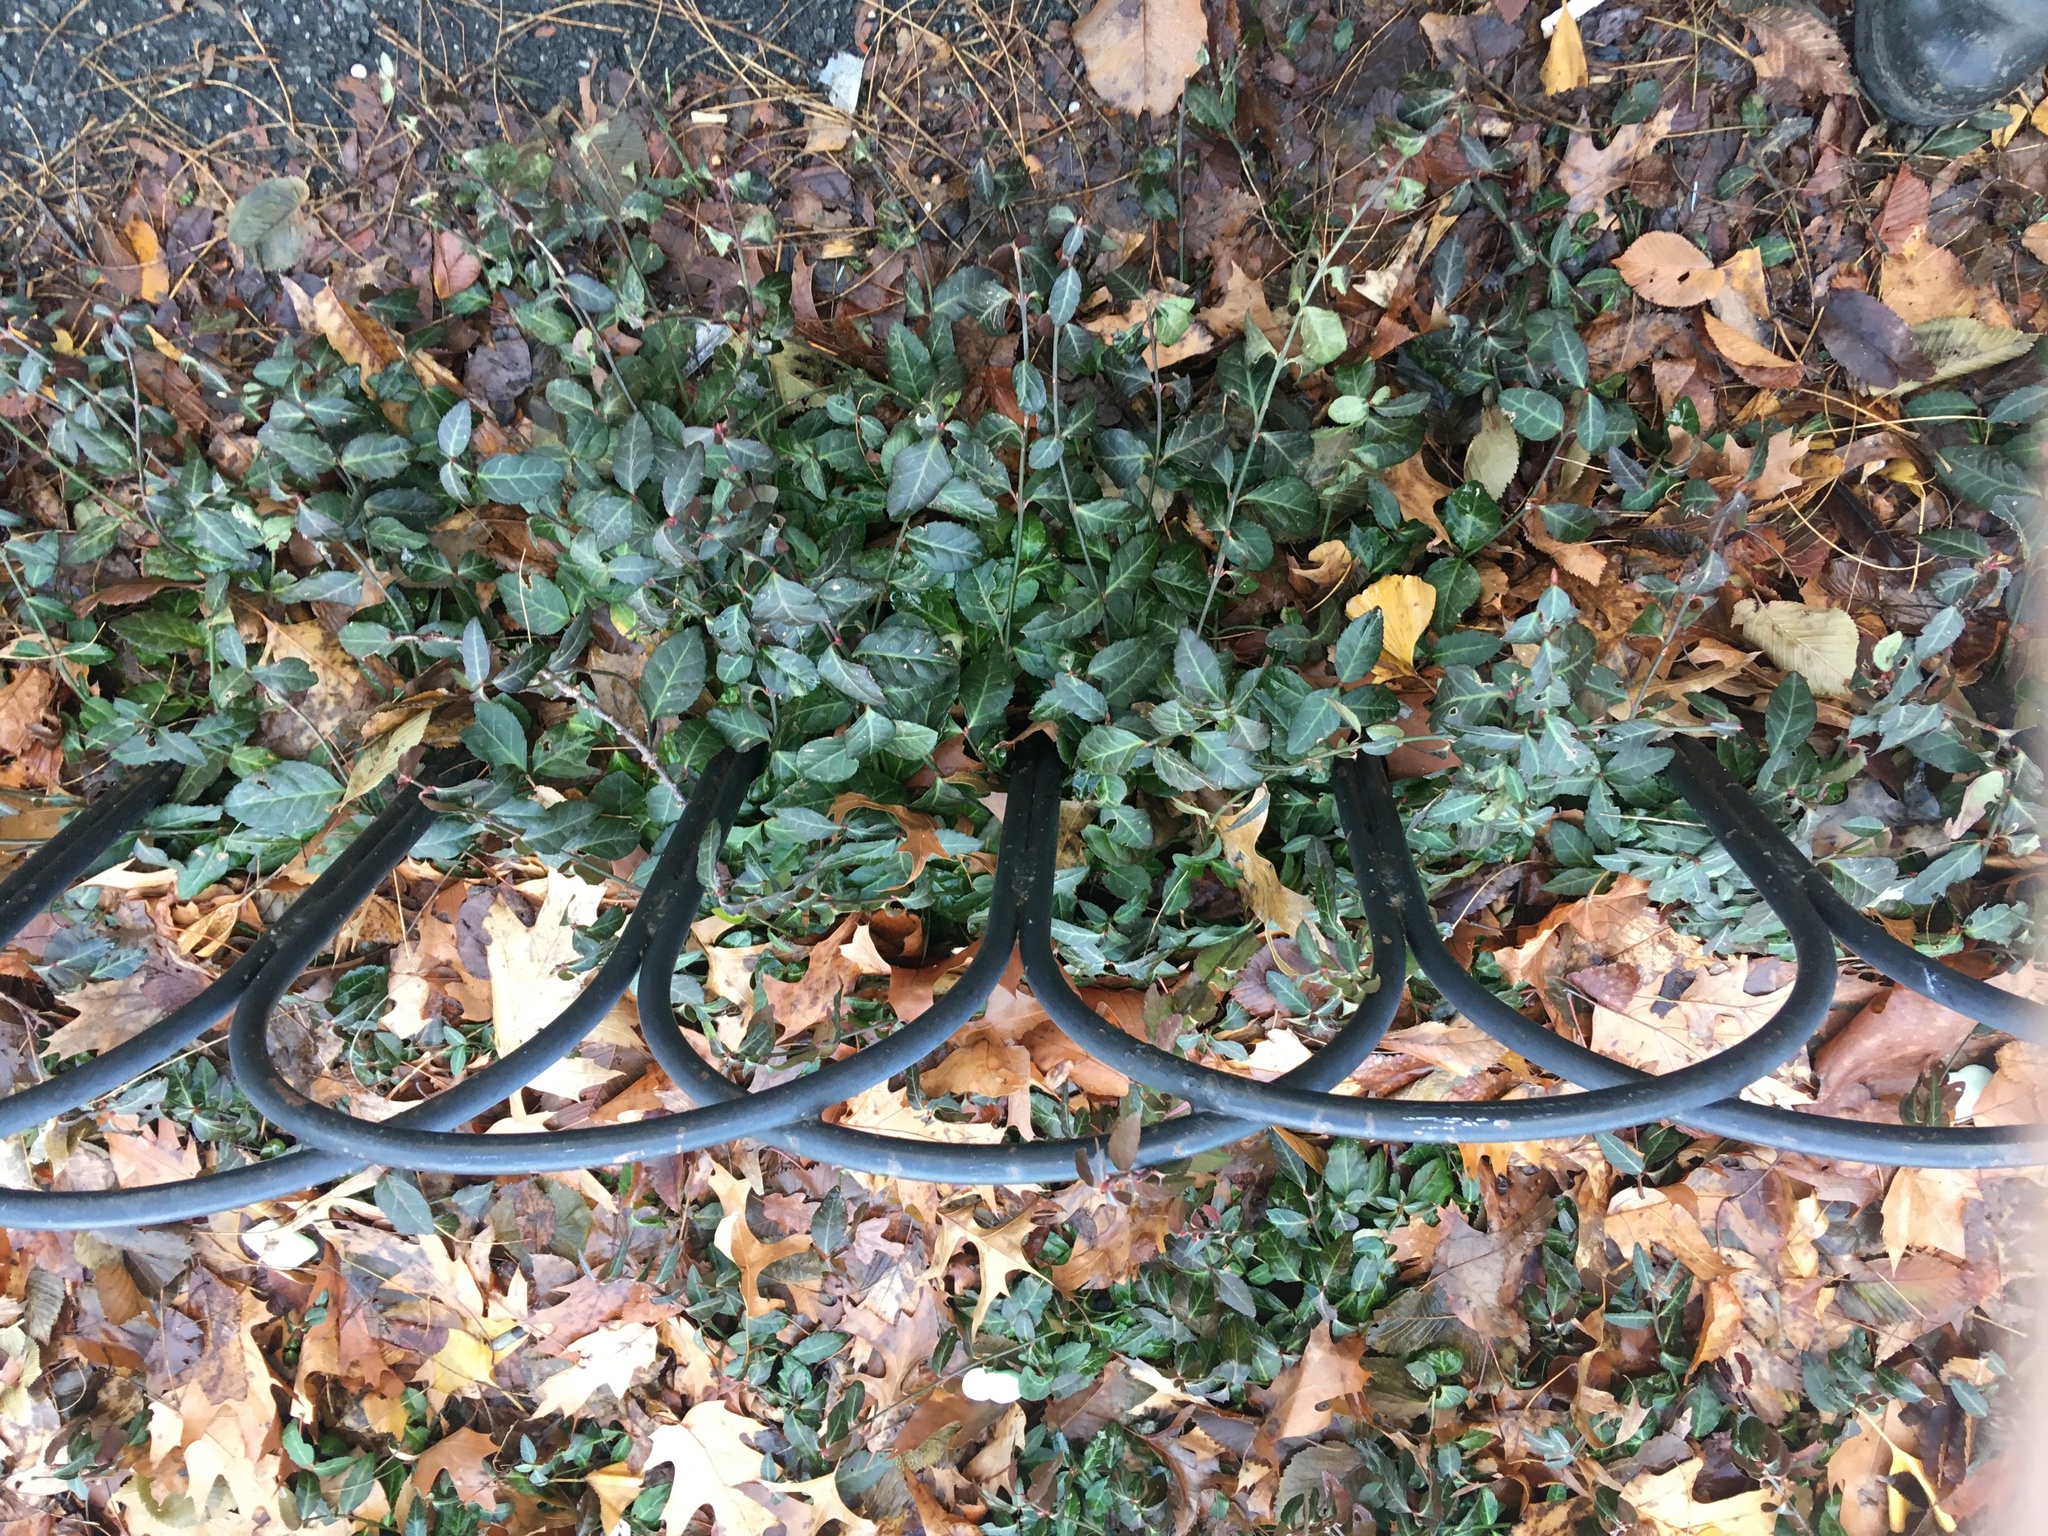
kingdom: Plantae
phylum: Tracheophyta
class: Magnoliopsida
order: Celastrales
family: Celastraceae
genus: Euonymus
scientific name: Euonymus fortunei
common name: Climbing euonymus
